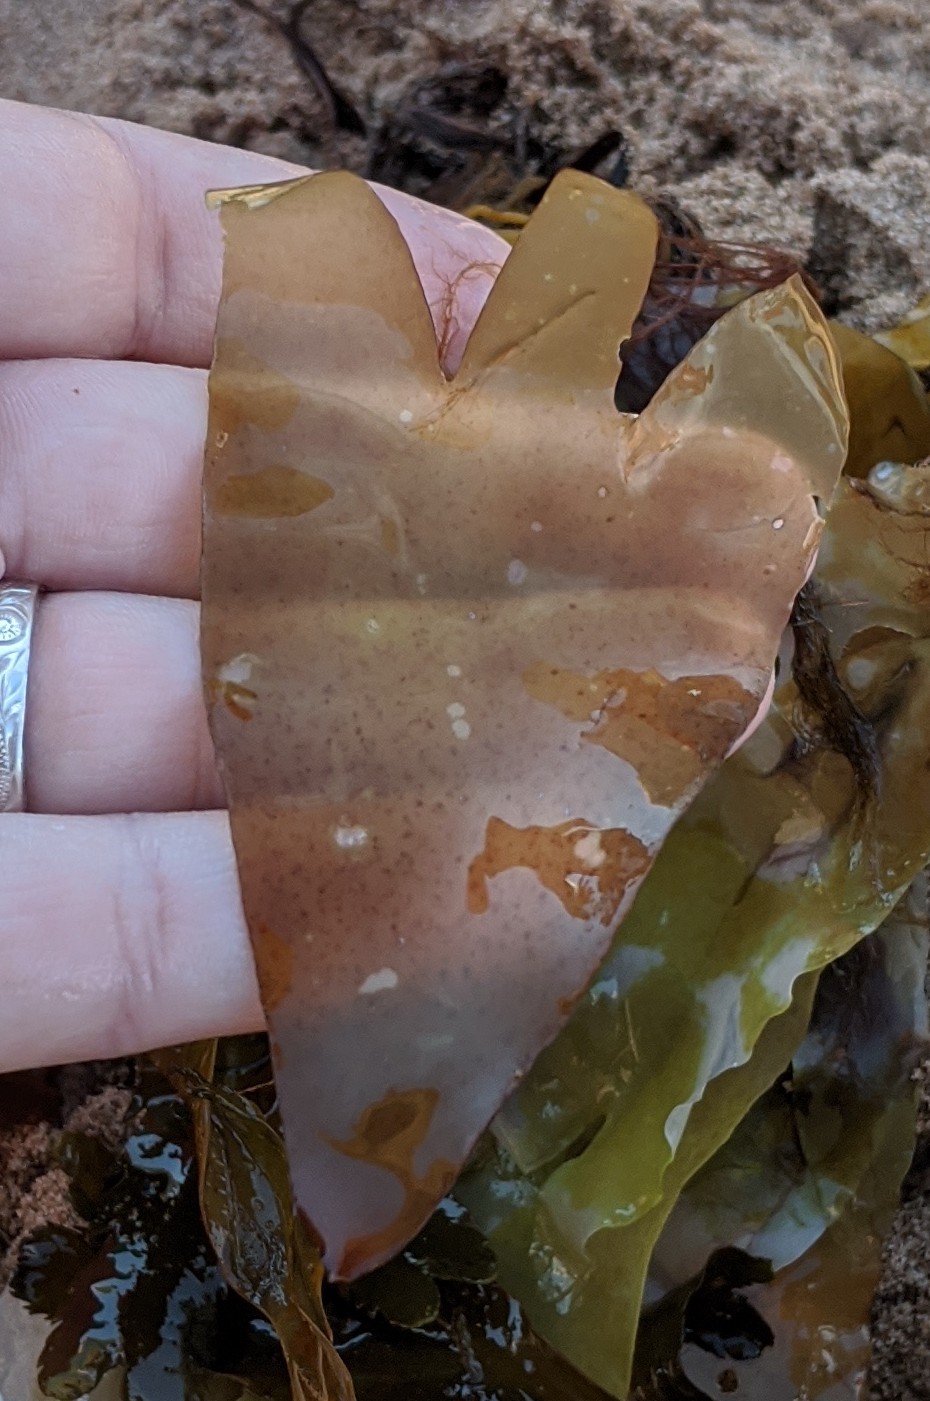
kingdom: Plantae
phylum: Rhodophyta
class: Florideophyceae
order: Palmariales
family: Palmariaceae
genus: Palmaria
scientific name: Palmaria palmata
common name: Dulse
